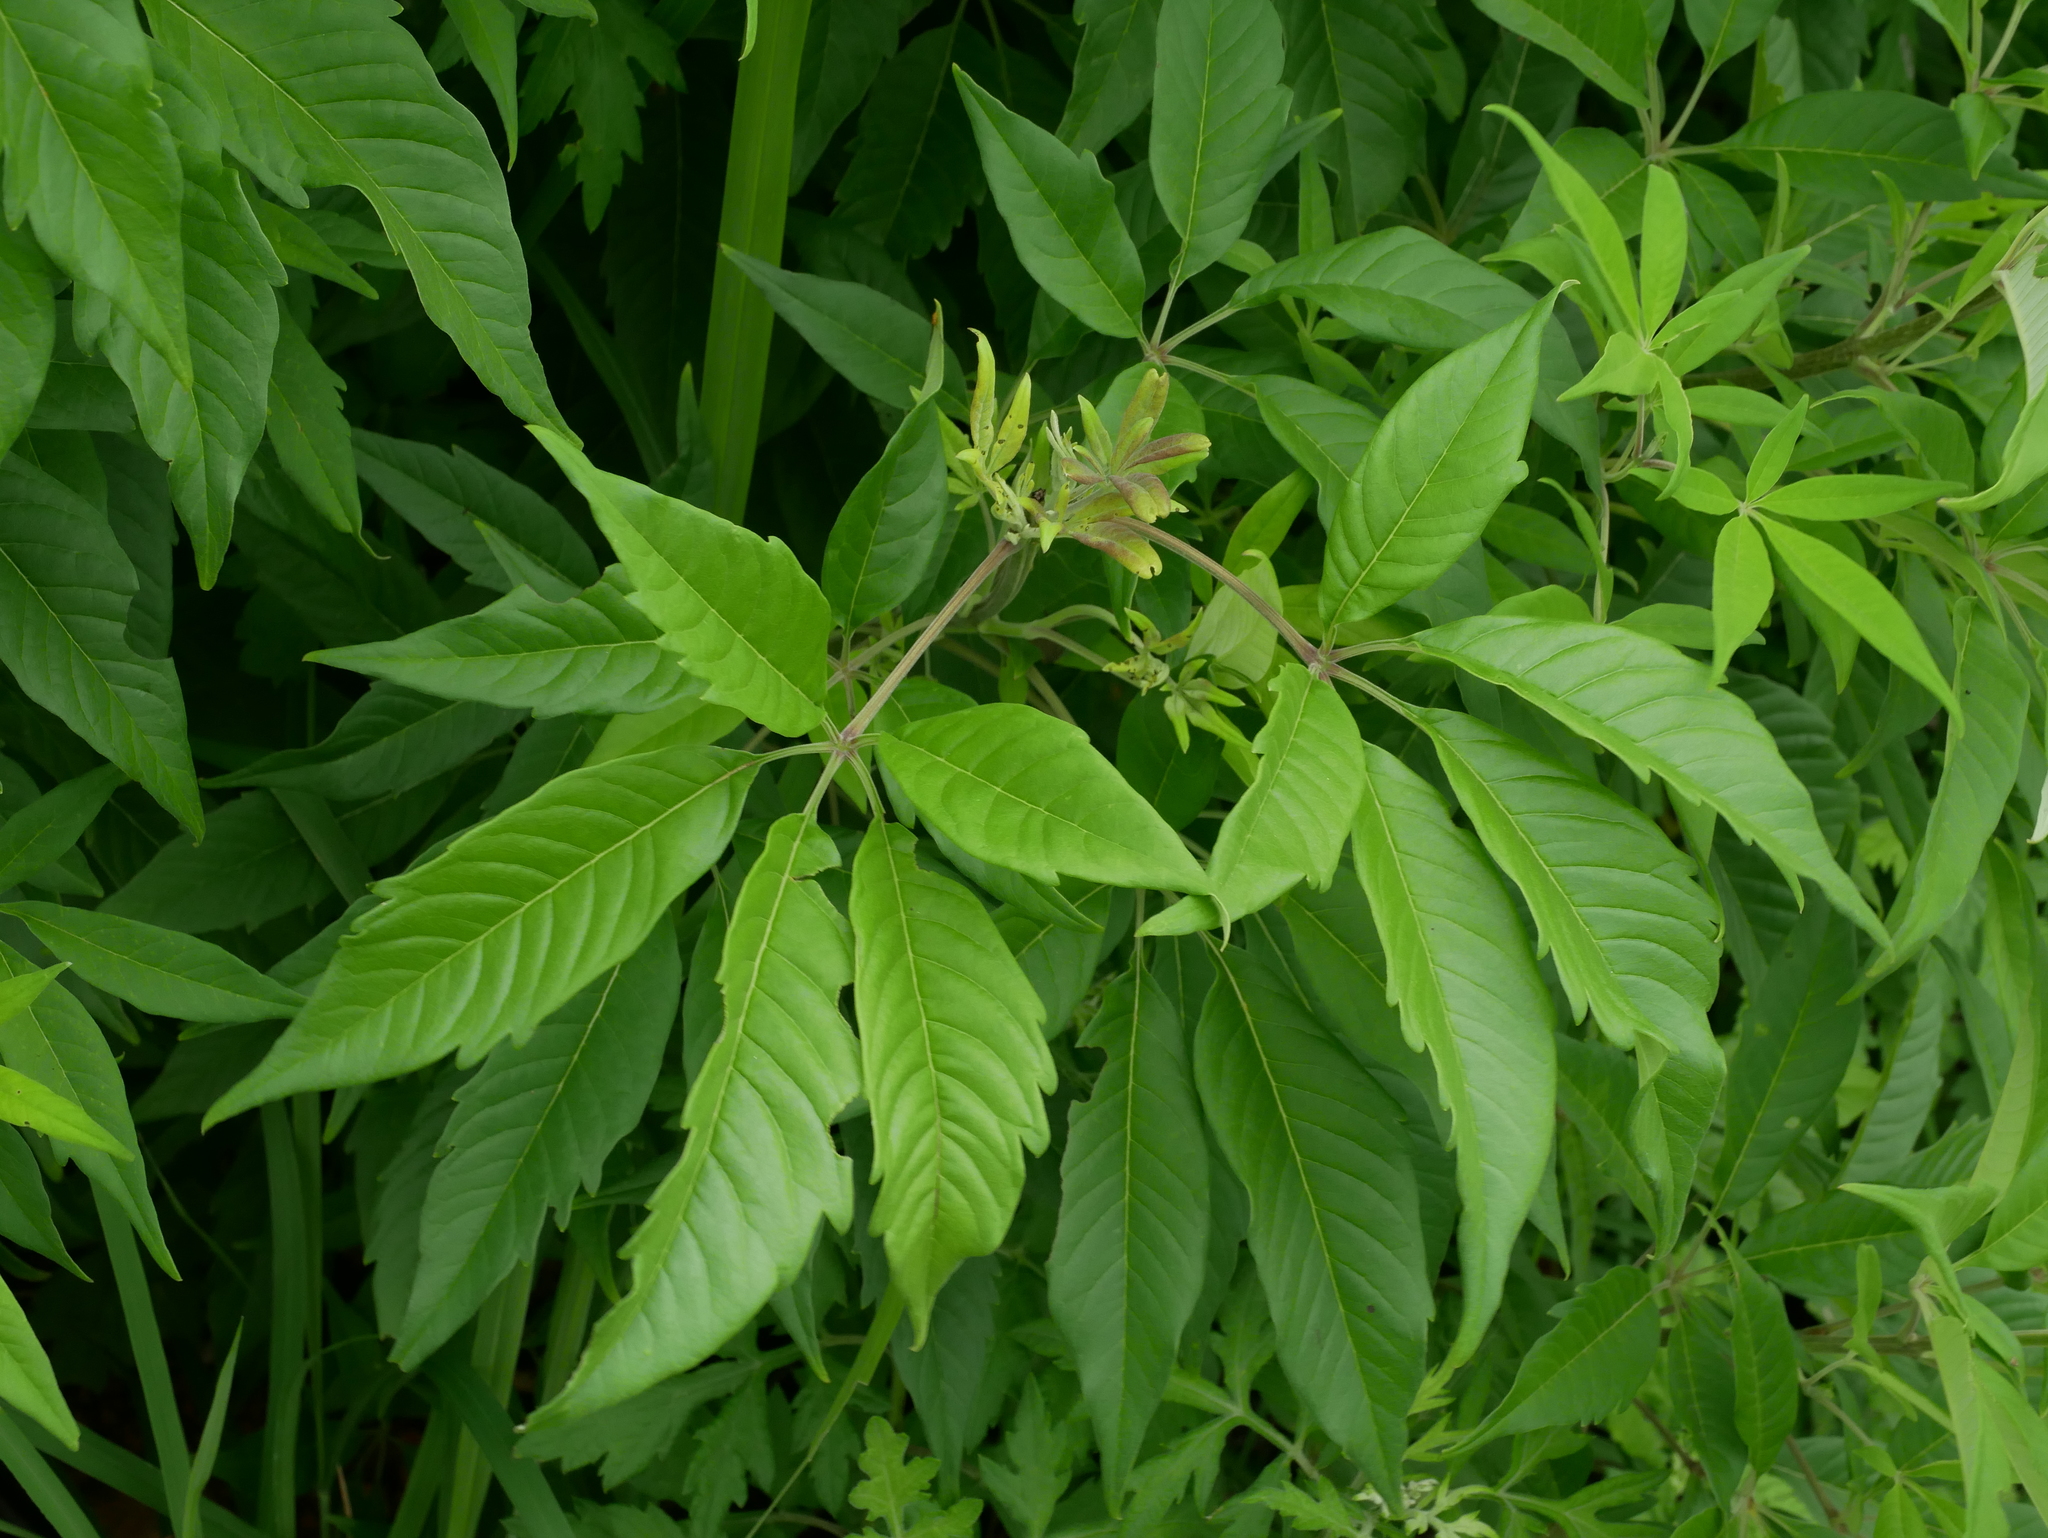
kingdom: Plantae
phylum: Tracheophyta
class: Magnoliopsida
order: Lamiales
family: Lamiaceae
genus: Vitex
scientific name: Vitex negundo
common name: Chinese chastetree
